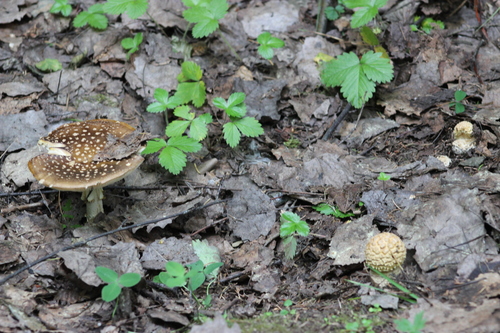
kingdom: Fungi
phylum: Basidiomycota
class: Agaricomycetes
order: Agaricales
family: Amanitaceae
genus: Amanita
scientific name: Amanita regalis
